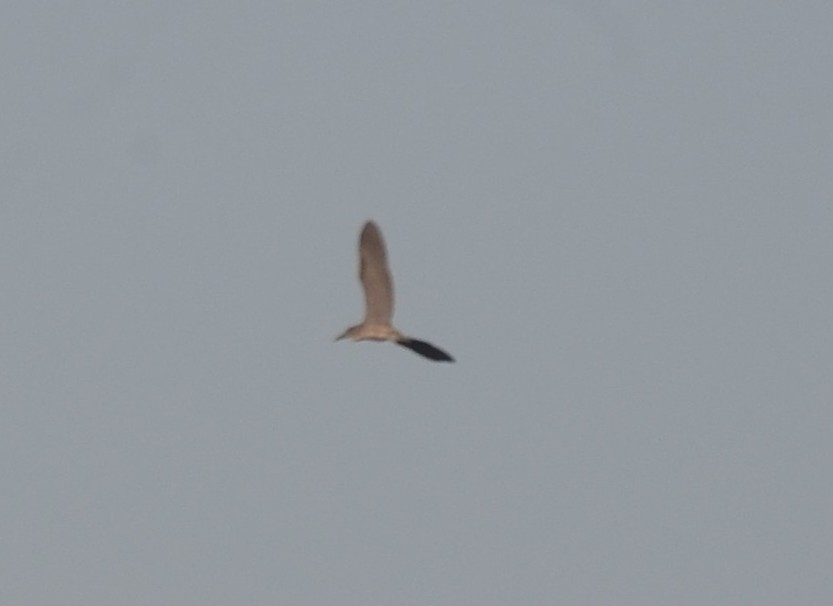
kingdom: Animalia
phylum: Chordata
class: Aves
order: Pelecaniformes
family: Ardeidae
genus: Nycticorax
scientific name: Nycticorax nycticorax
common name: Black-crowned night heron
